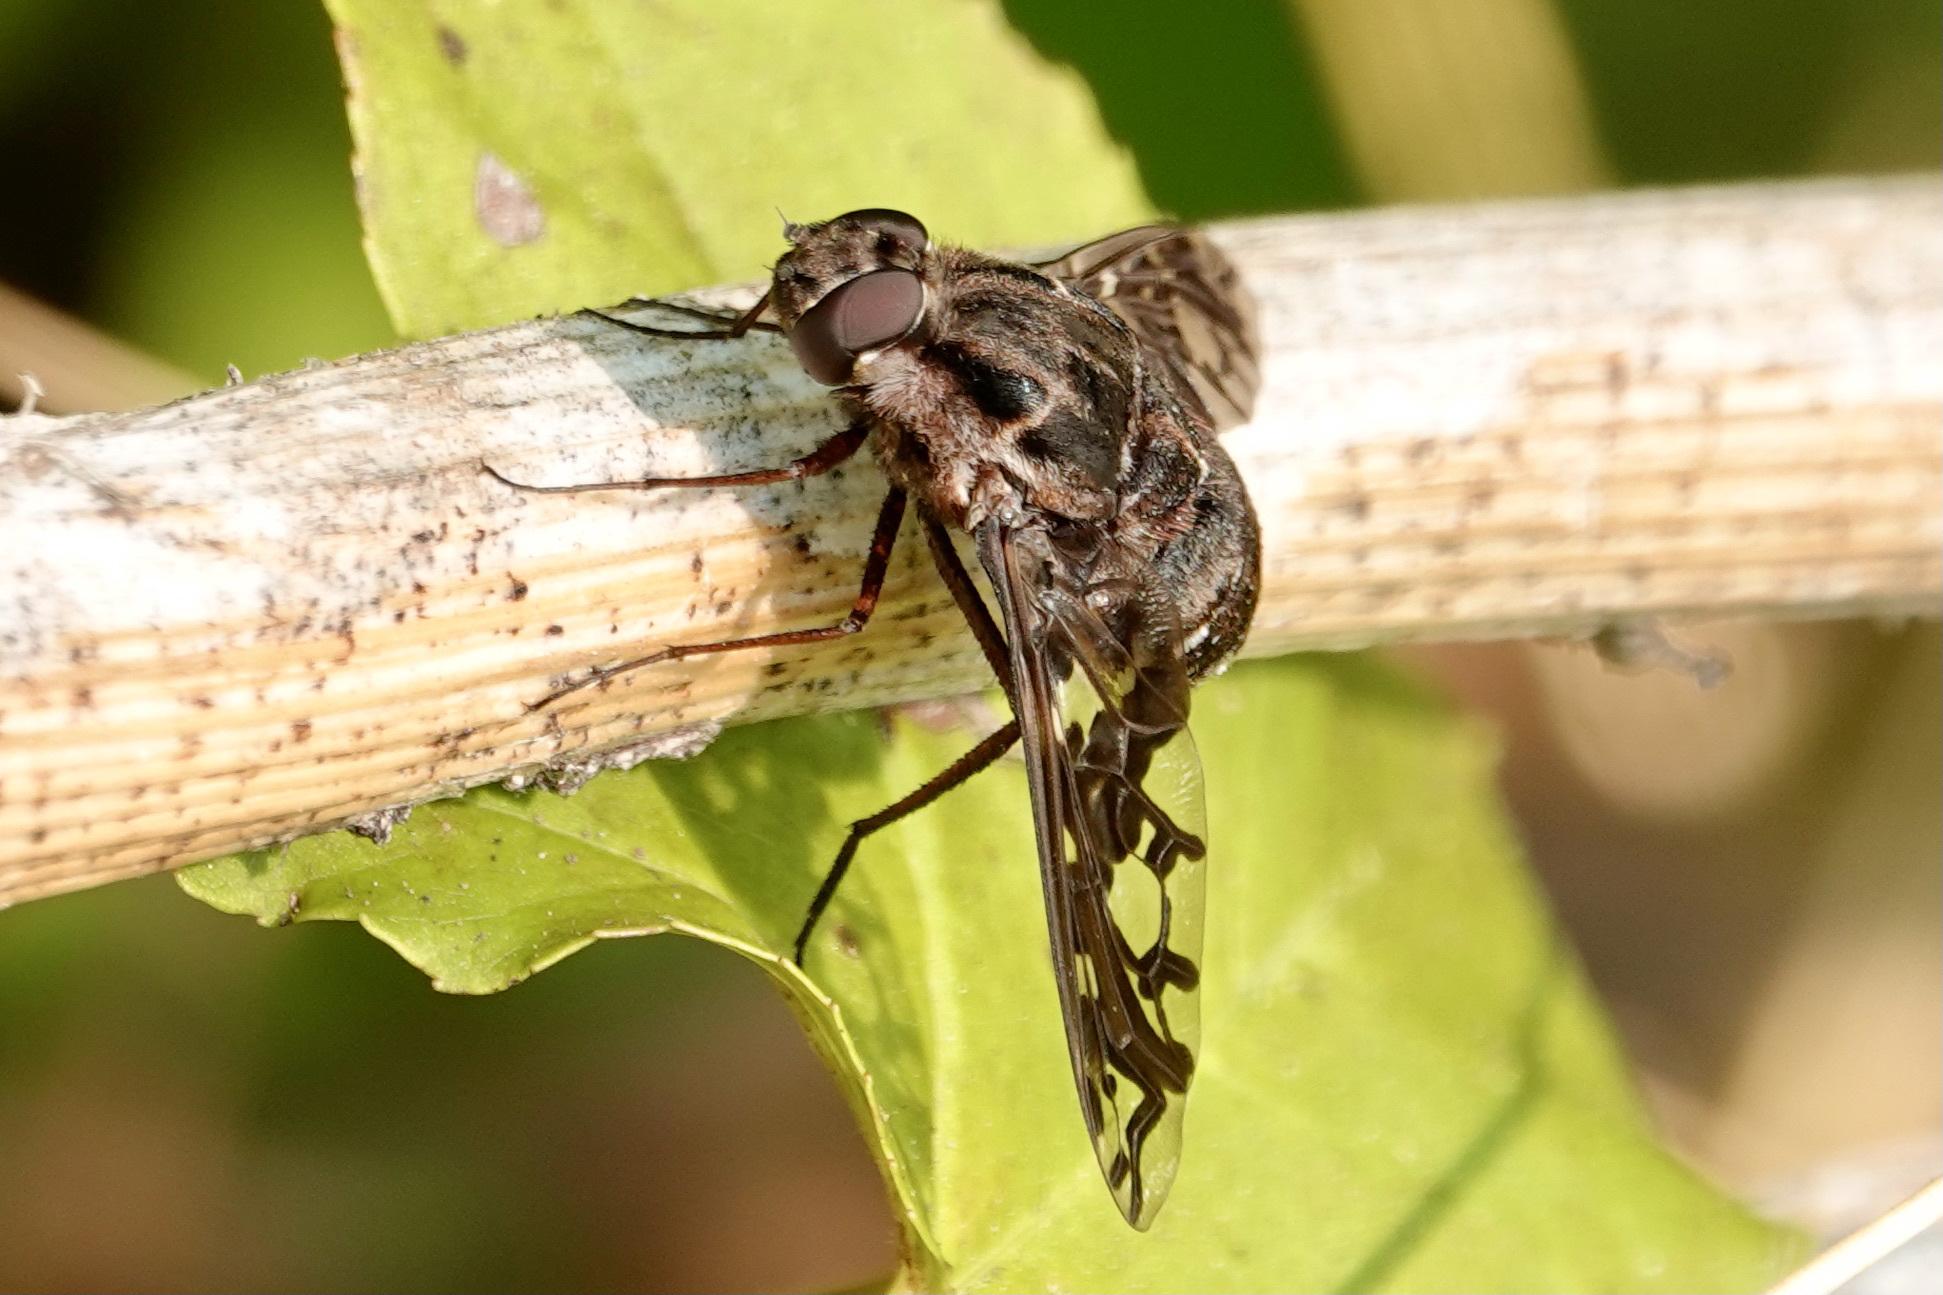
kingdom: Animalia
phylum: Arthropoda
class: Insecta
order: Diptera
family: Bombyliidae
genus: Xenox
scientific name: Xenox tigrinus
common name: Tiger bee fly
